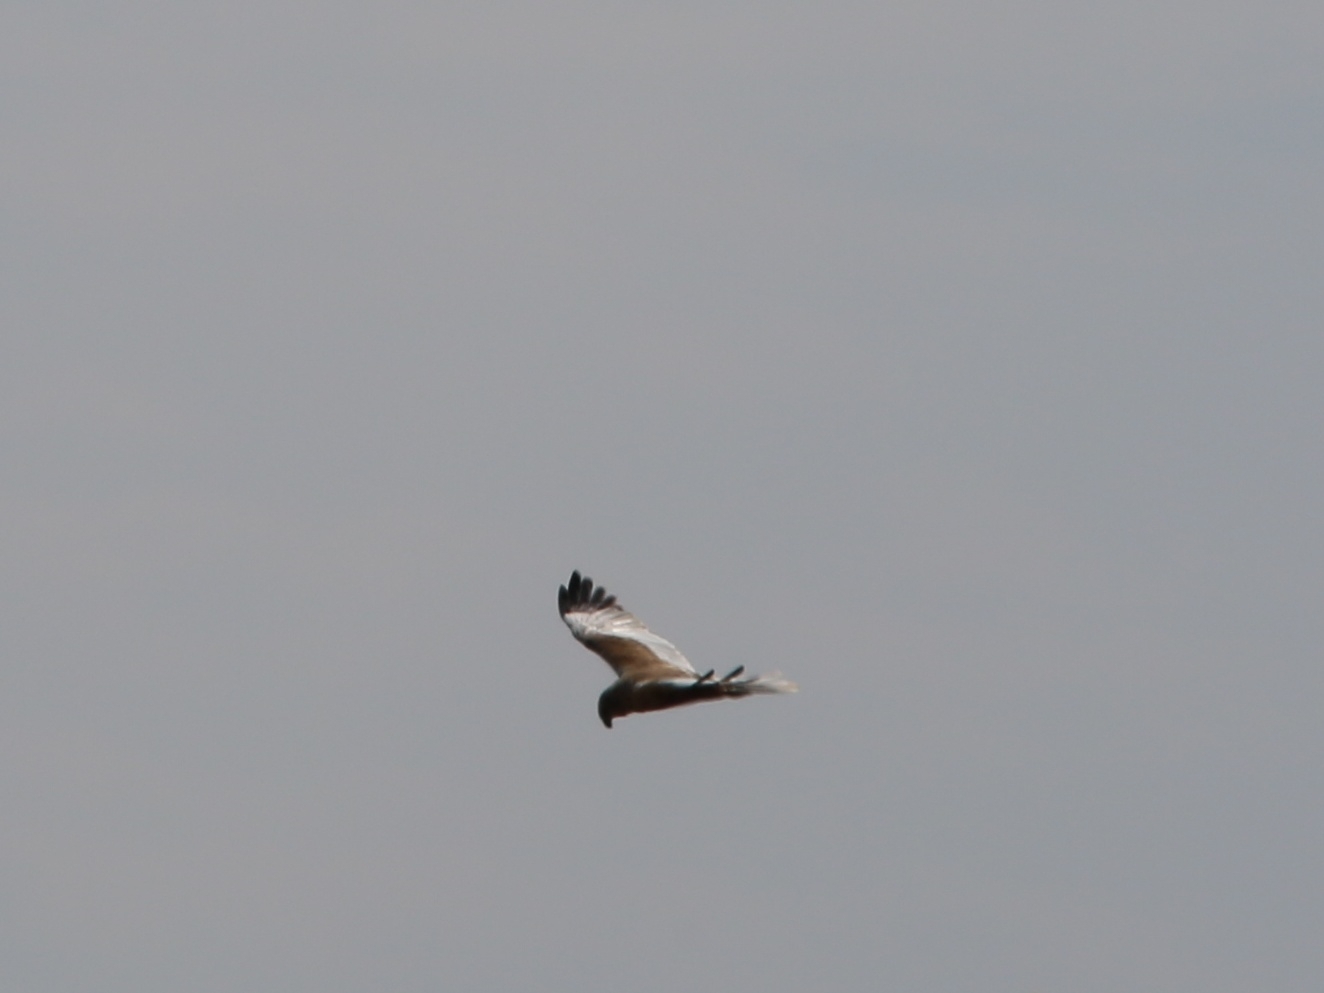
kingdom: Animalia
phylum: Chordata
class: Aves
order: Accipitriformes
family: Accipitridae
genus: Circus
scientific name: Circus aeruginosus
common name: Western marsh harrier
